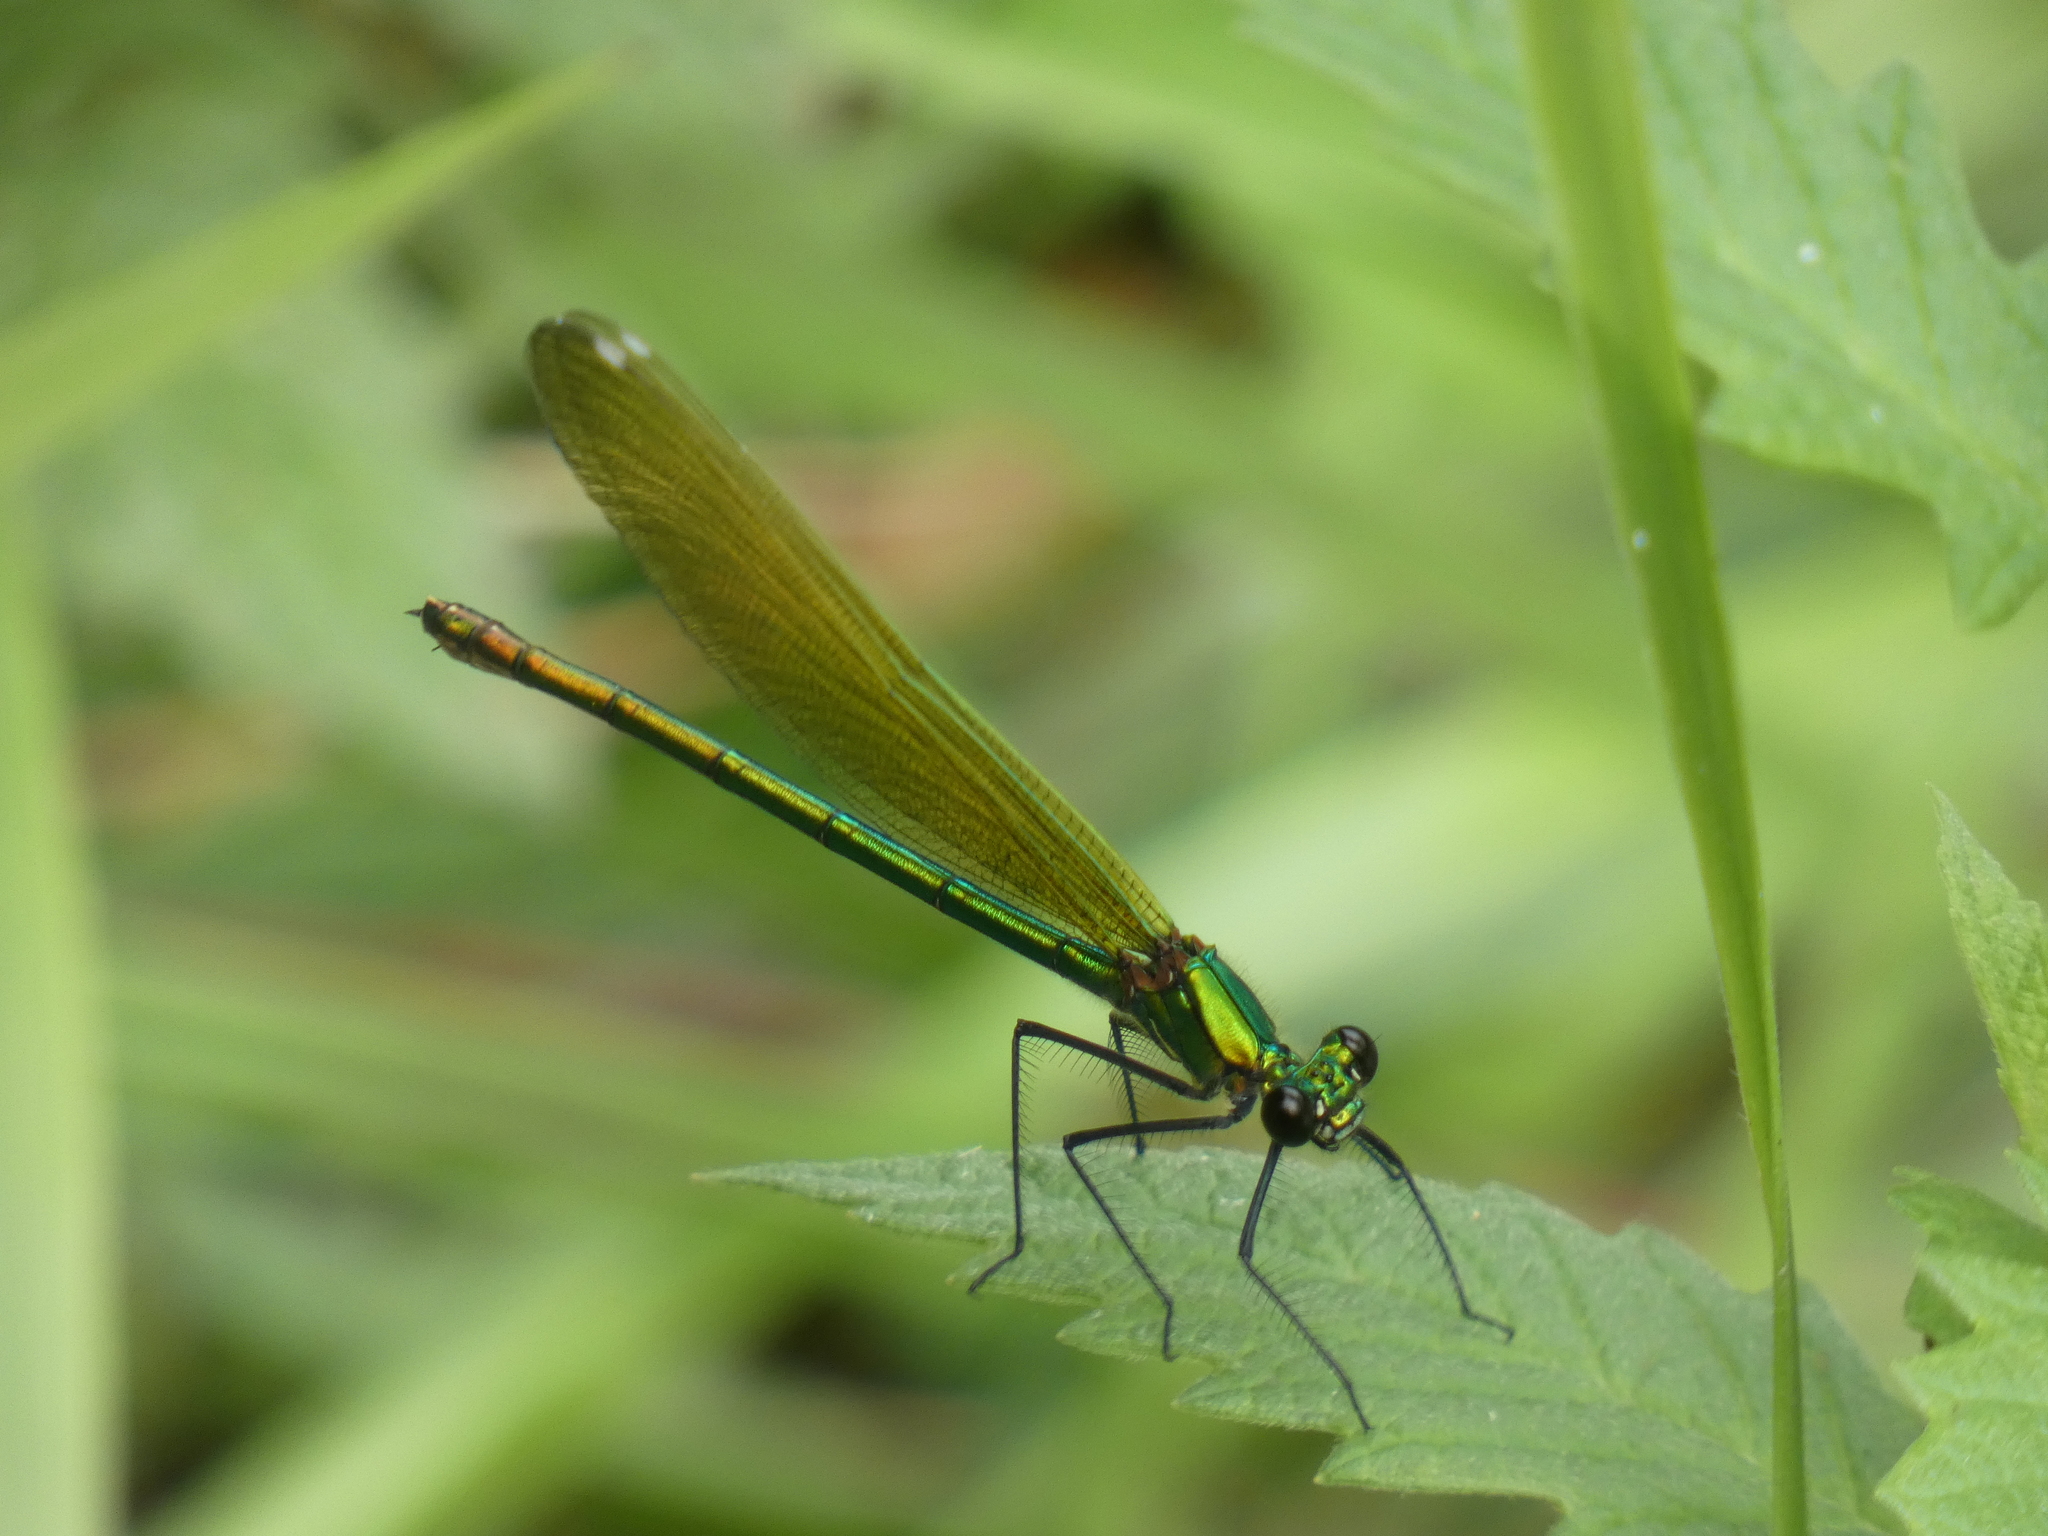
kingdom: Animalia
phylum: Arthropoda
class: Insecta
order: Odonata
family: Calopterygidae
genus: Calopteryx
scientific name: Calopteryx splendens
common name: Banded demoiselle
